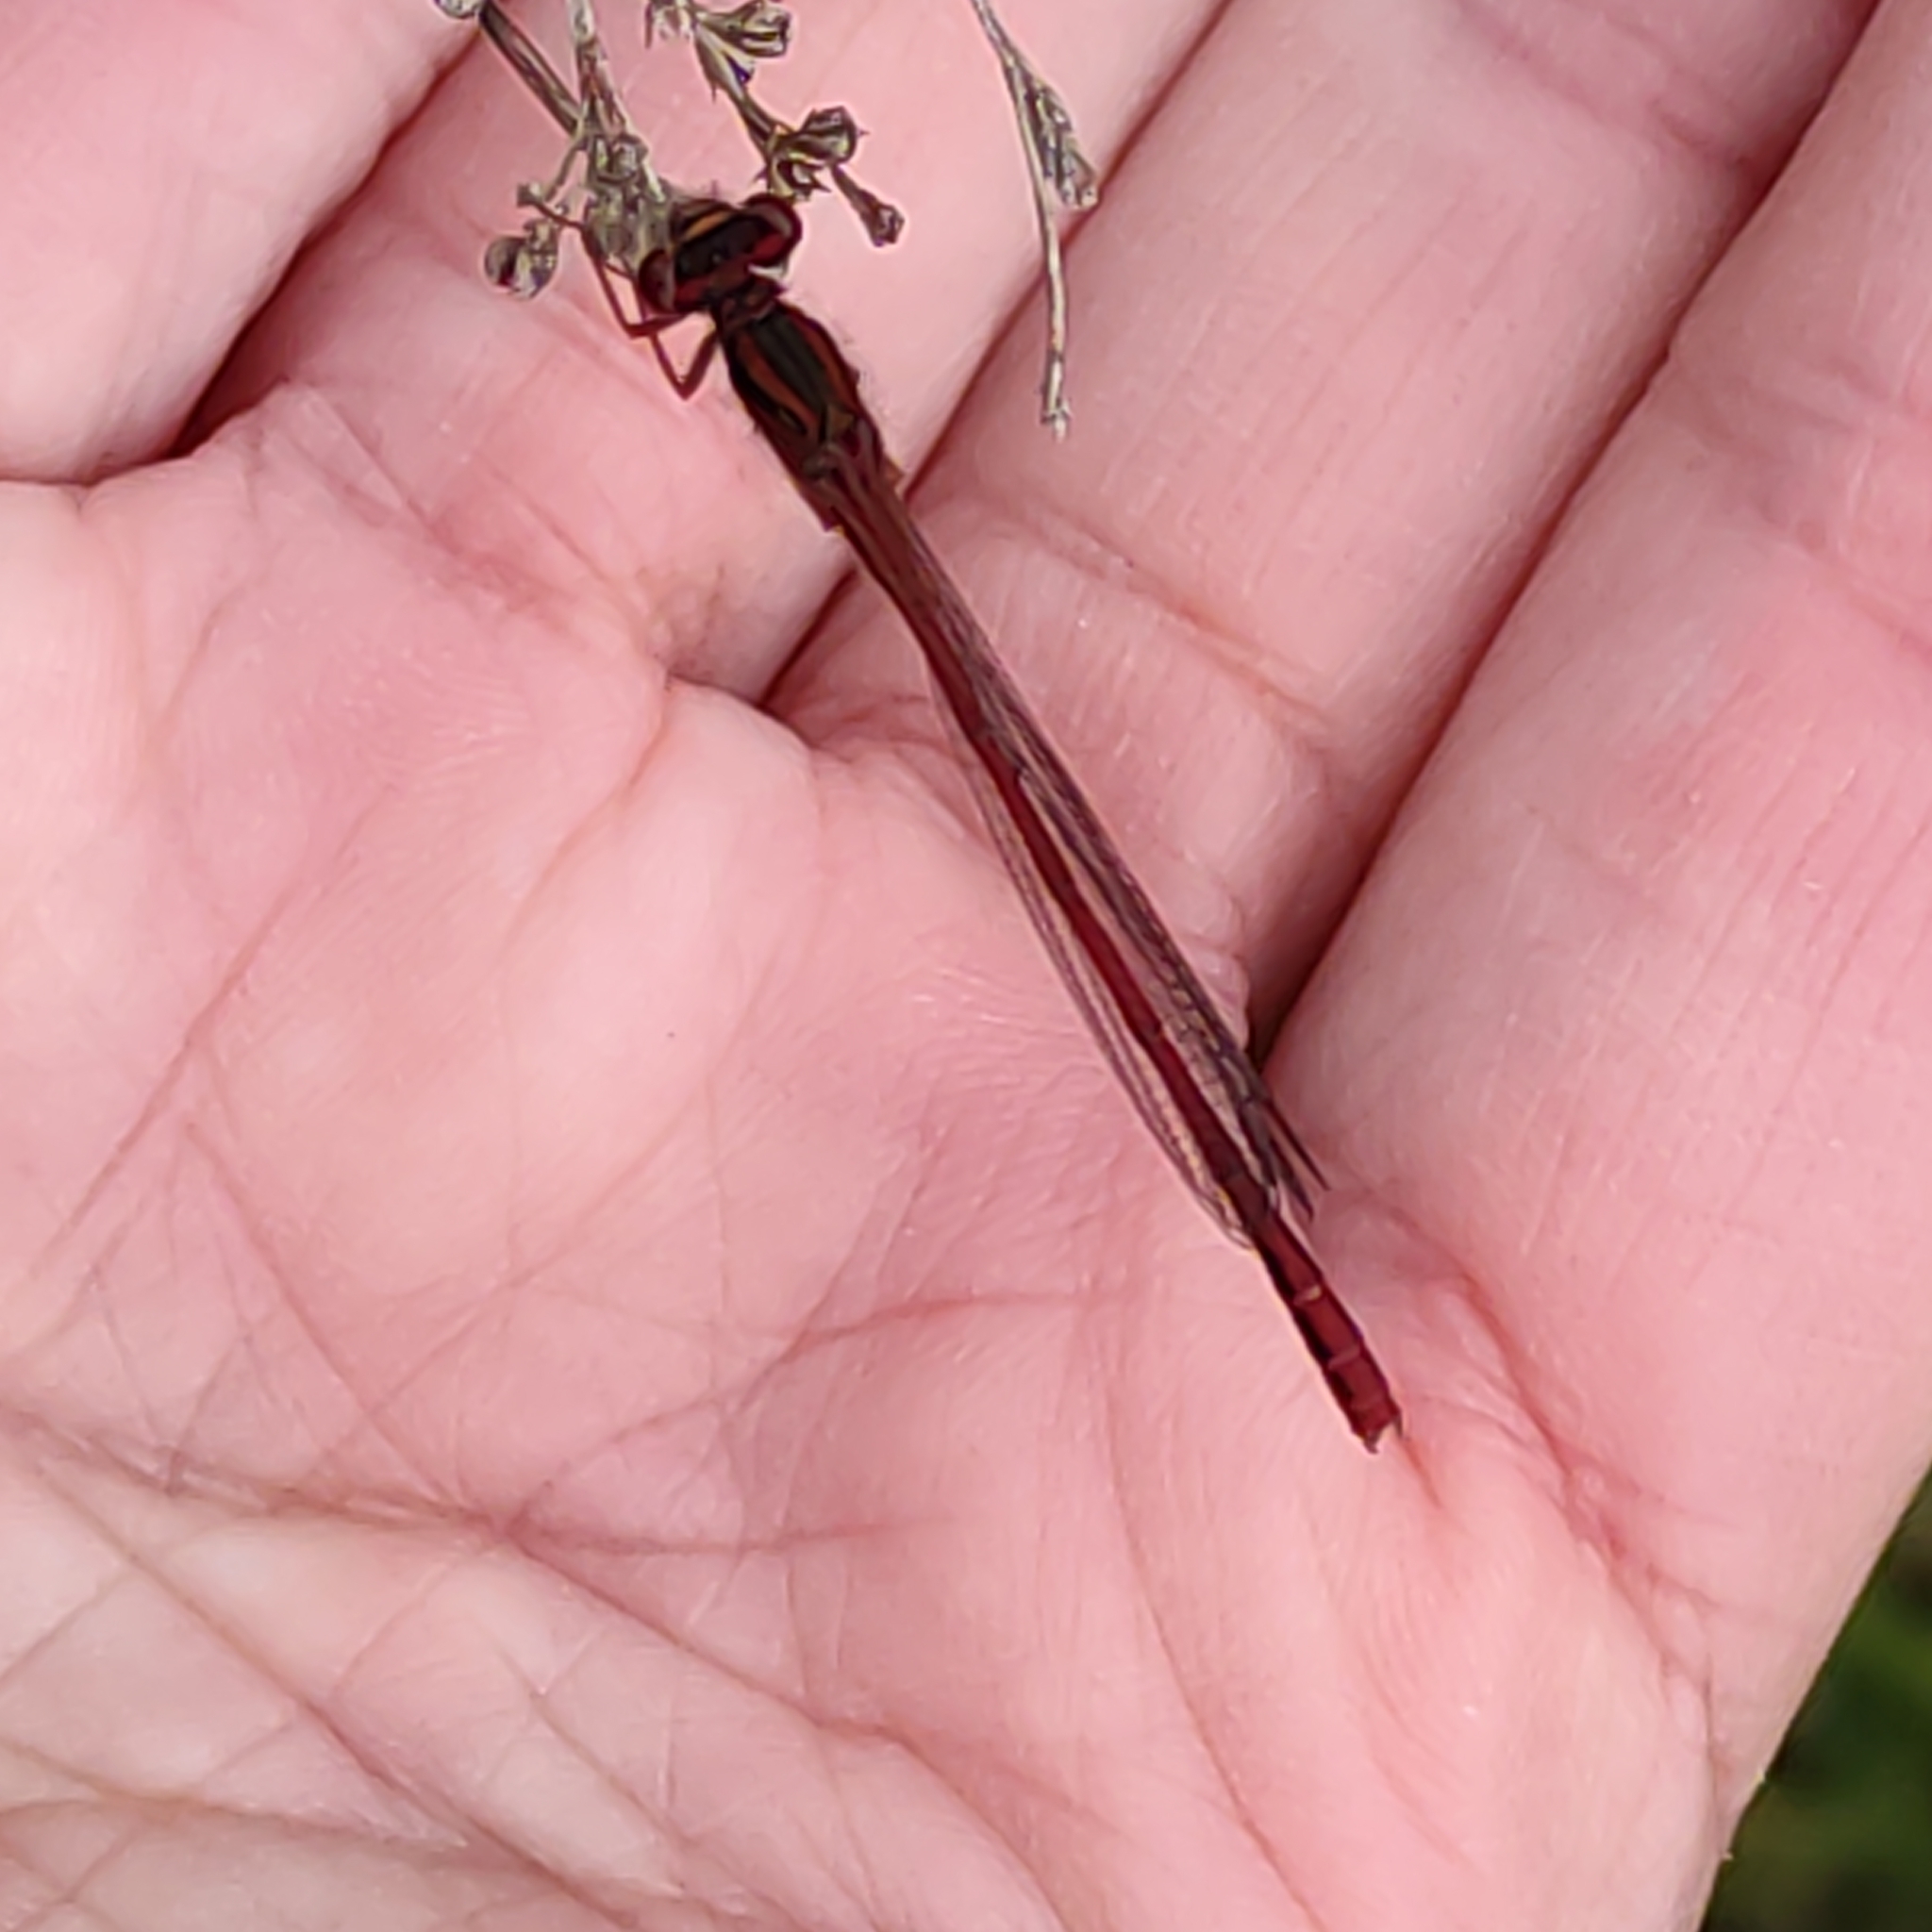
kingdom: Animalia
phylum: Arthropoda
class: Insecta
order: Odonata
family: Coenagrionidae
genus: Xanthocnemis
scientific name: Xanthocnemis zealandica
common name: Common redcoat damselfly
